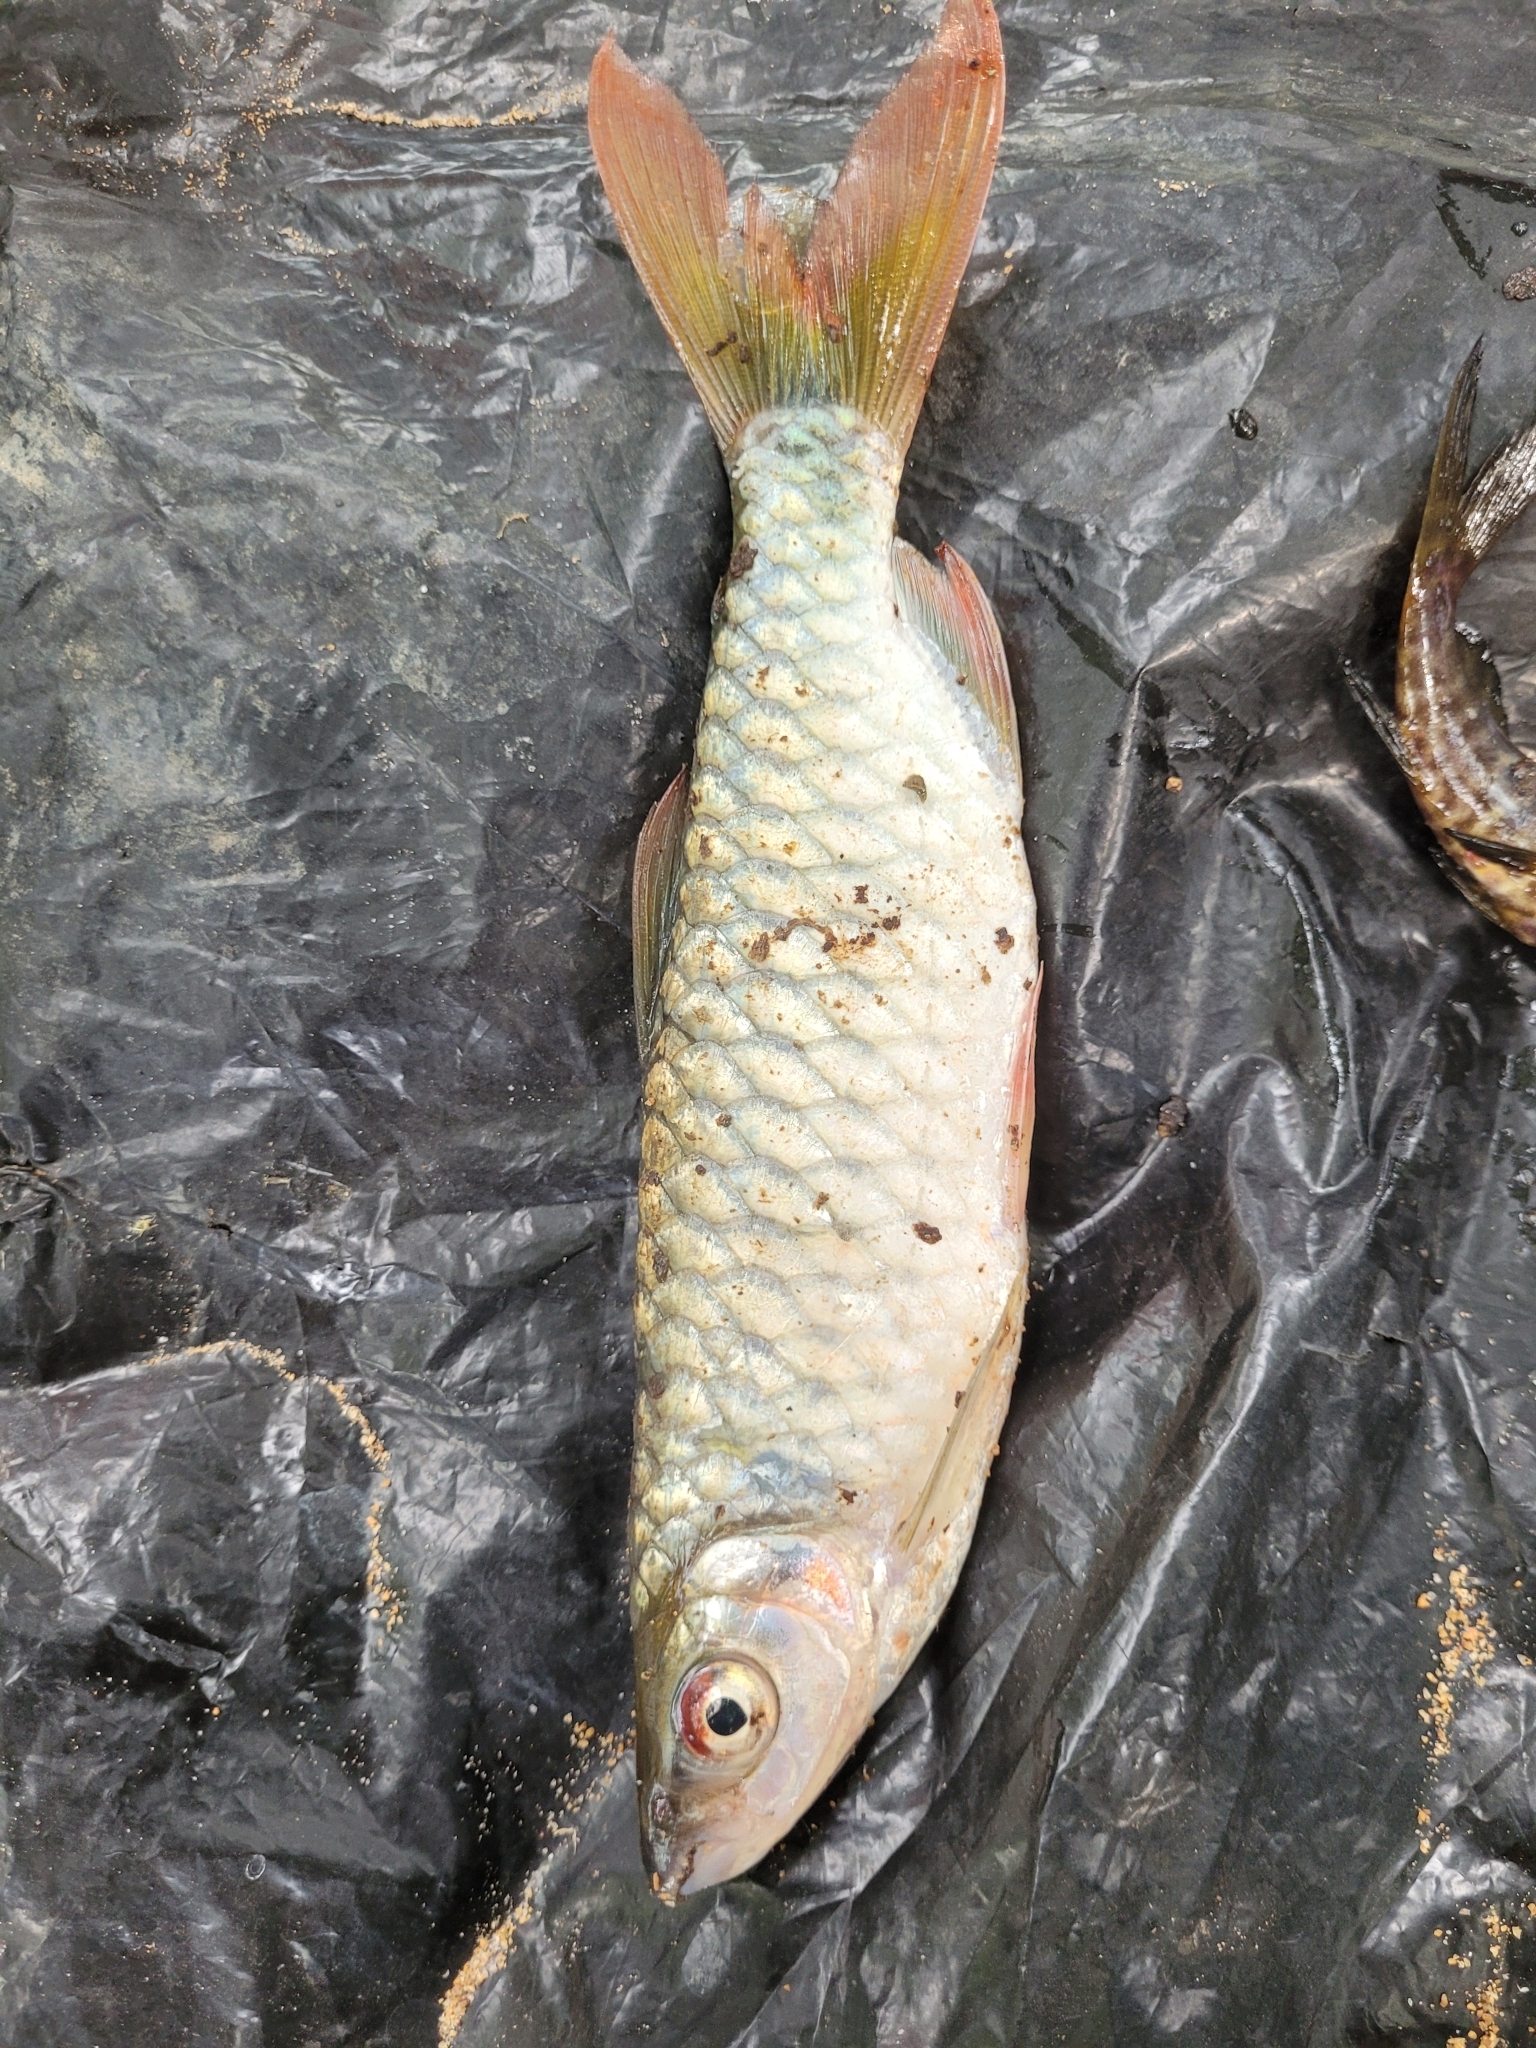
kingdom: Animalia
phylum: Chordata
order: Characiformes
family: Alestidae
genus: Brycinus
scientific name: Brycinus macrolepidotus
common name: Characin
